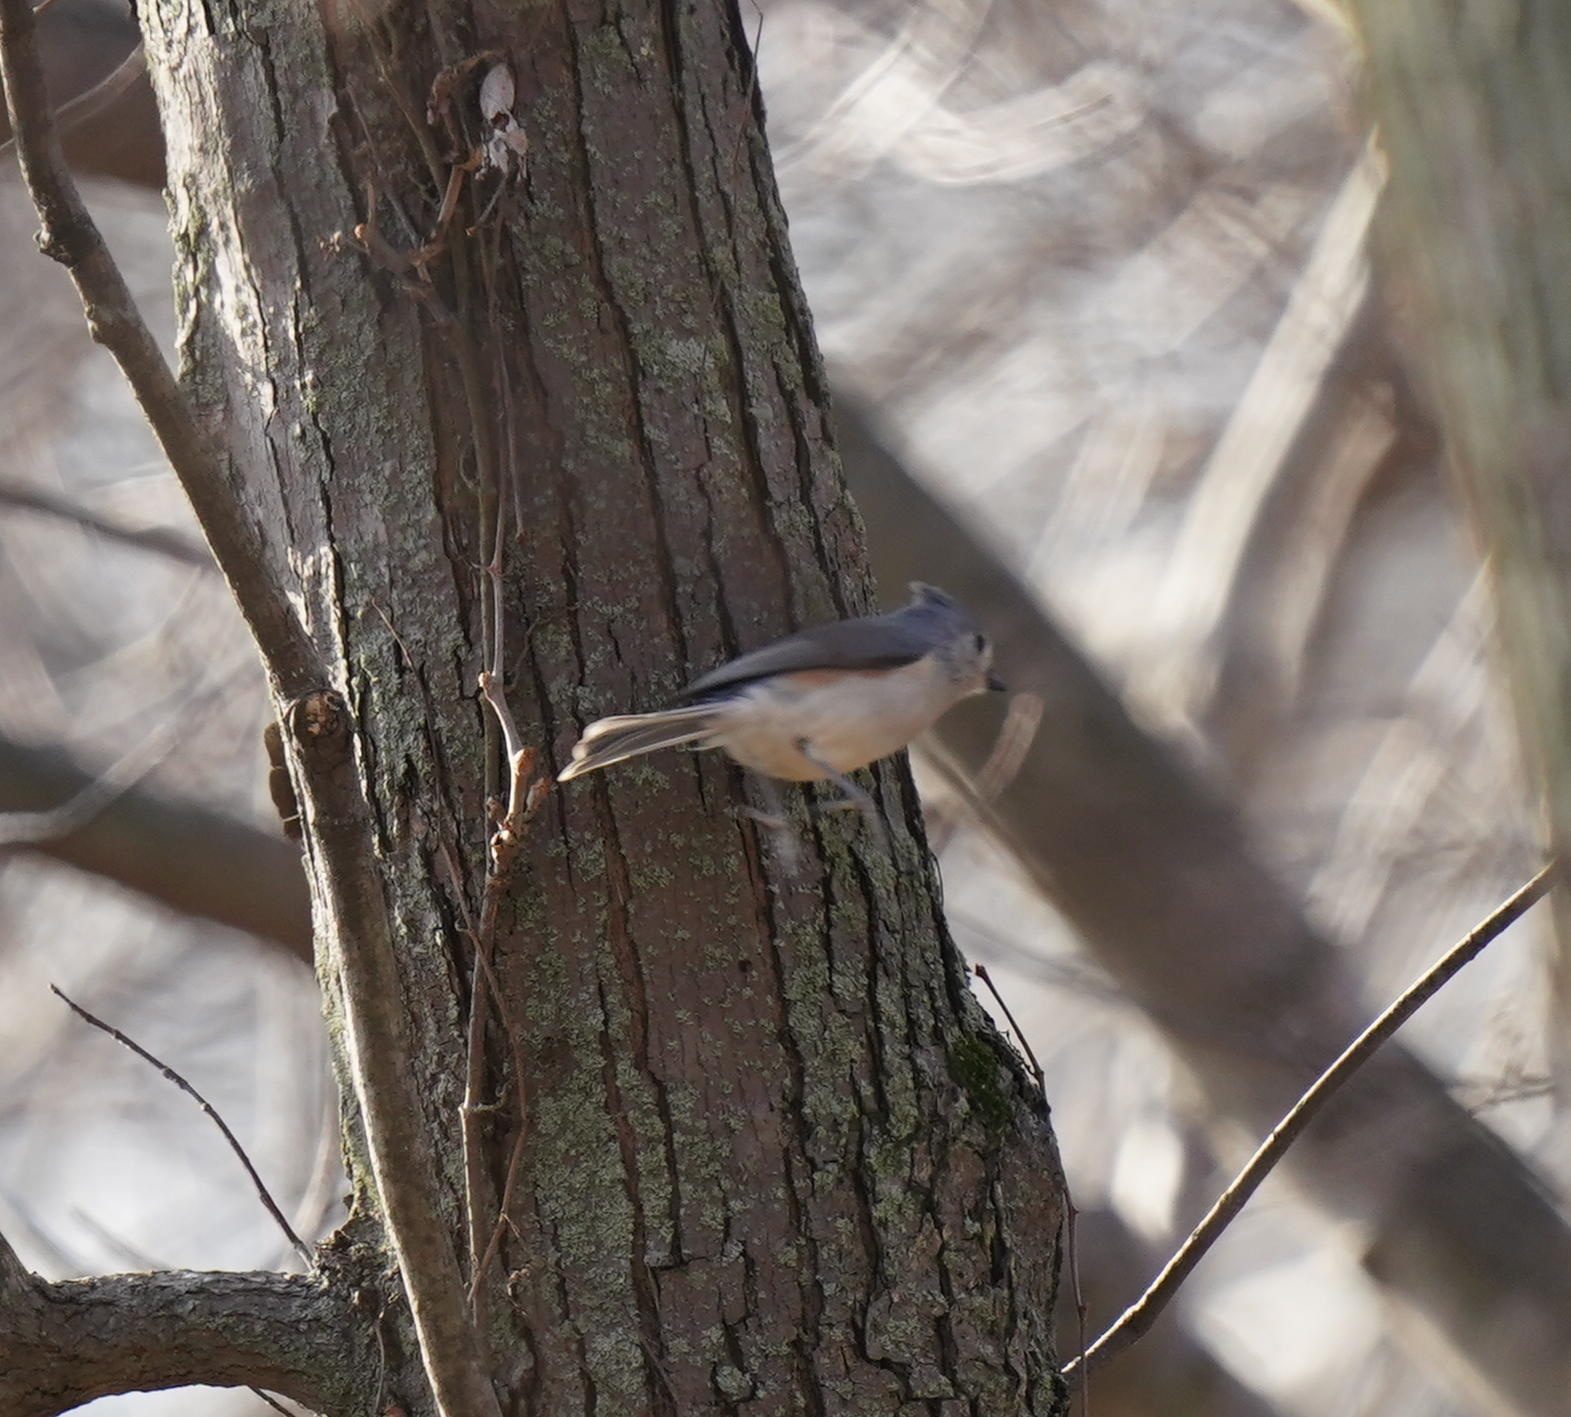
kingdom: Animalia
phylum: Chordata
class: Aves
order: Passeriformes
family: Paridae
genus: Baeolophus
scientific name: Baeolophus bicolor
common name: Tufted titmouse
